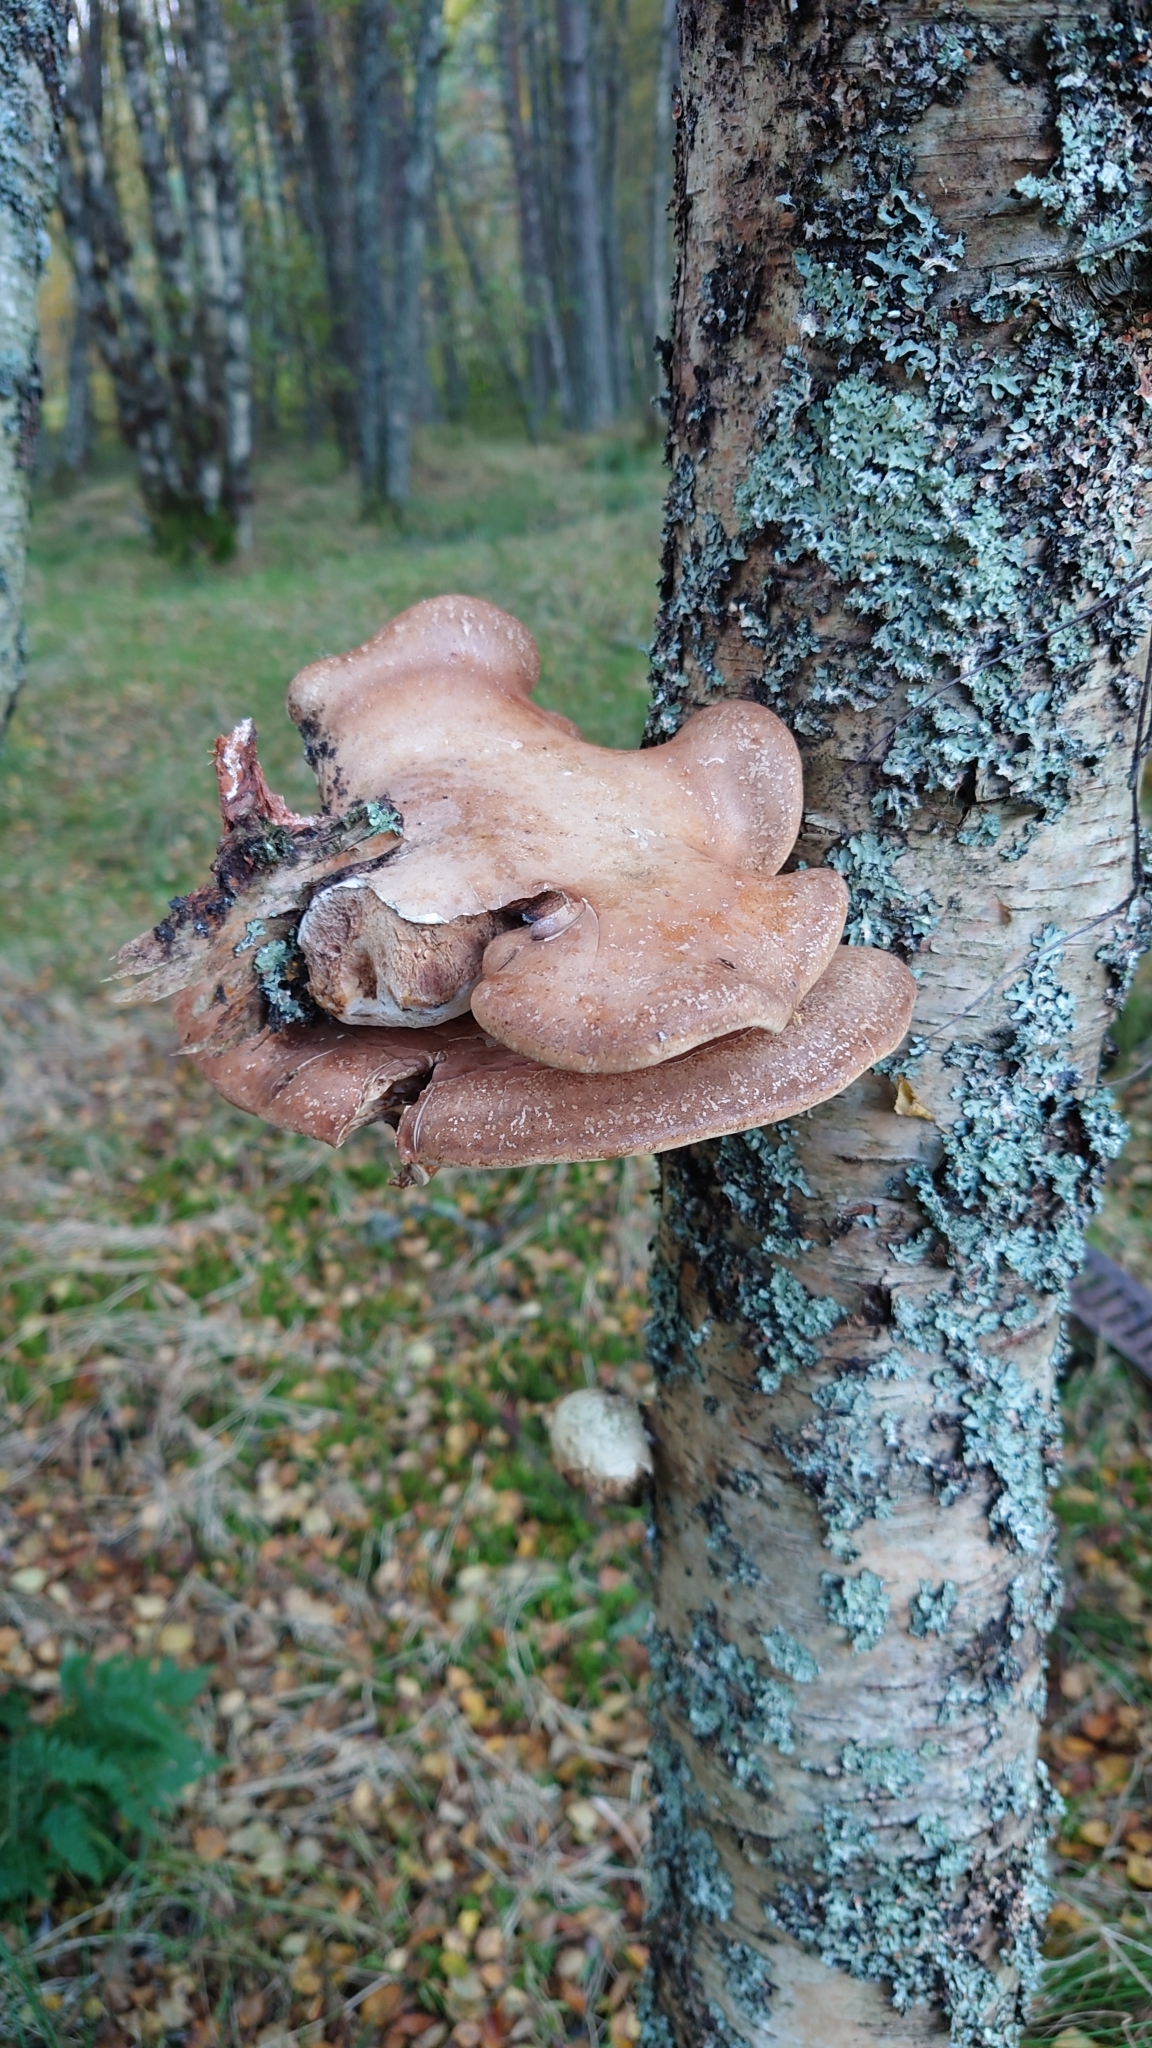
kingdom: Fungi
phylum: Basidiomycota
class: Agaricomycetes
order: Polyporales
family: Fomitopsidaceae
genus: Fomitopsis
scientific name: Fomitopsis betulina
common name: Birch polypore
